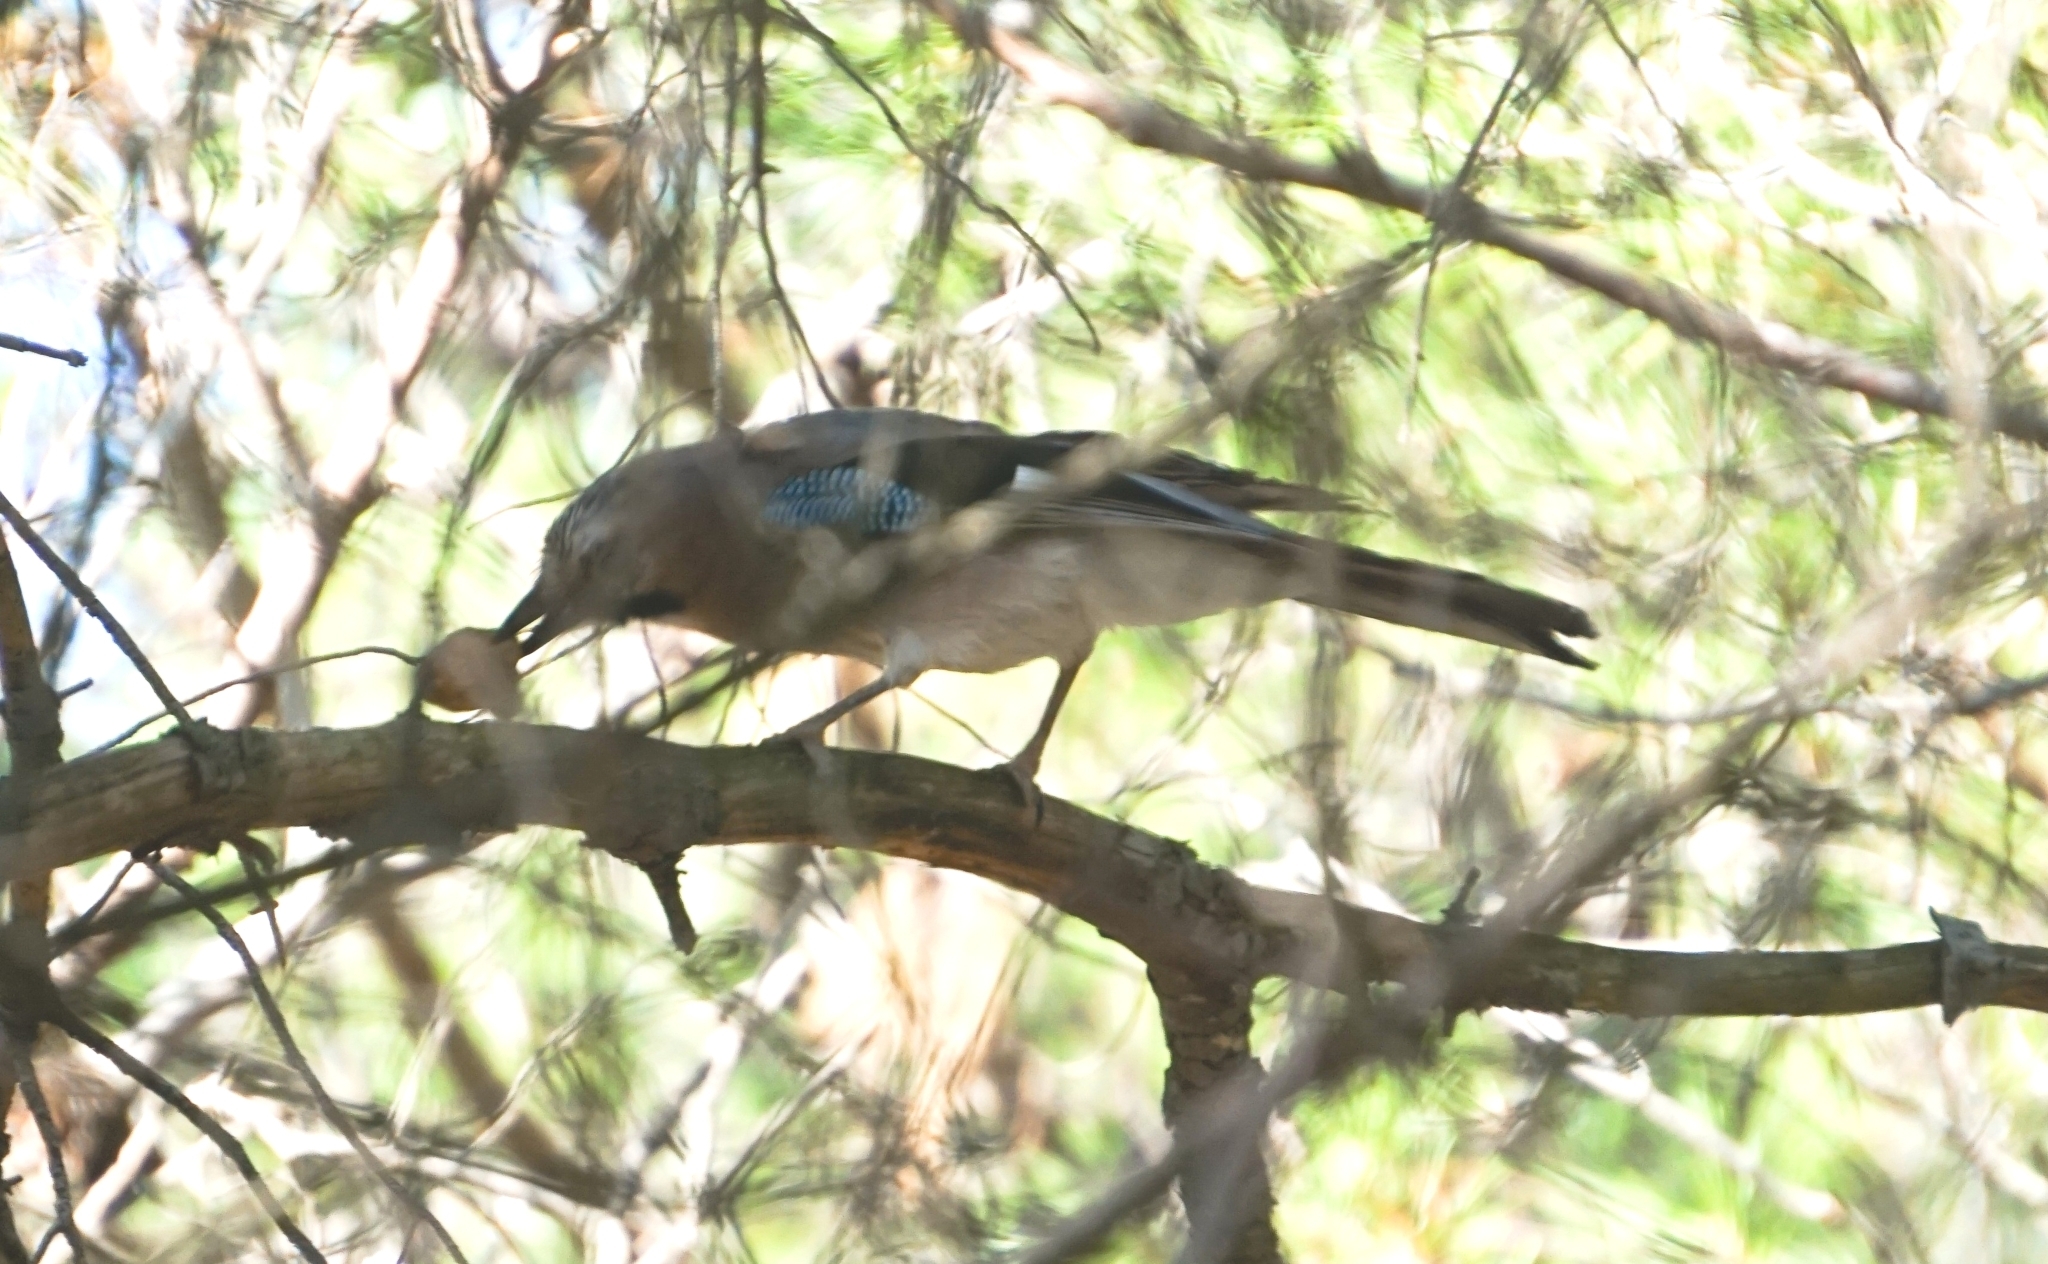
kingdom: Animalia
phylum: Chordata
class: Aves
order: Passeriformes
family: Corvidae
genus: Garrulus
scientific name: Garrulus glandarius
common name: Eurasian jay
